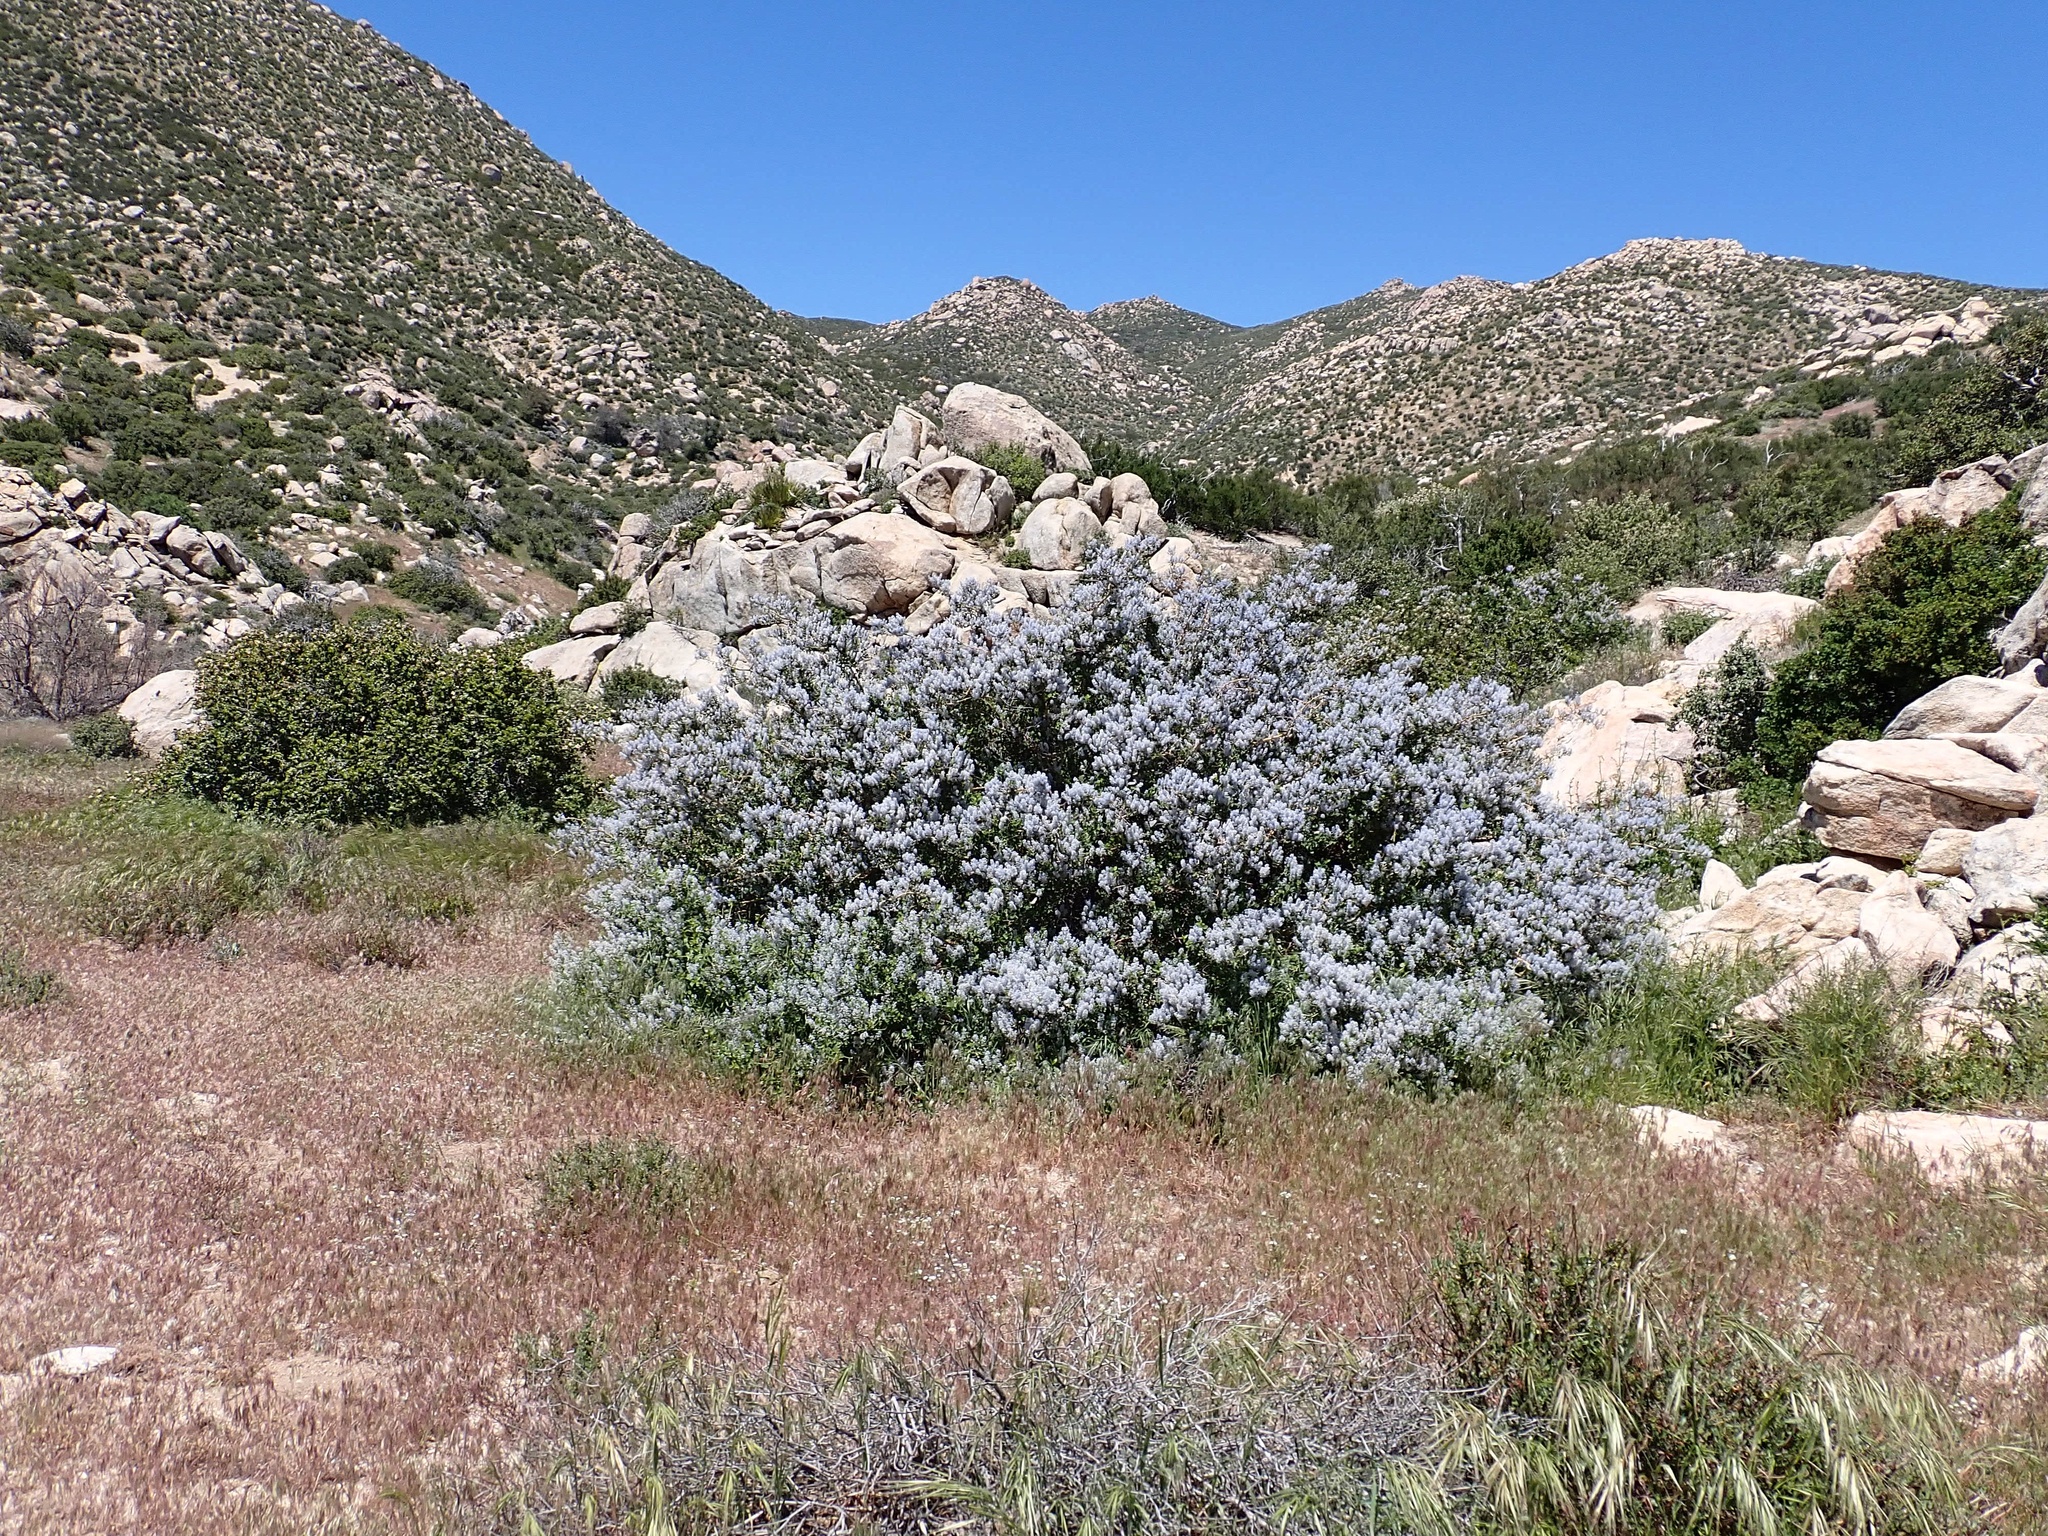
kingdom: Plantae
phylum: Tracheophyta
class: Magnoliopsida
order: Rosales
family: Rhamnaceae
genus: Ceanothus
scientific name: Ceanothus leucodermis
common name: Chaparral whitethorn
